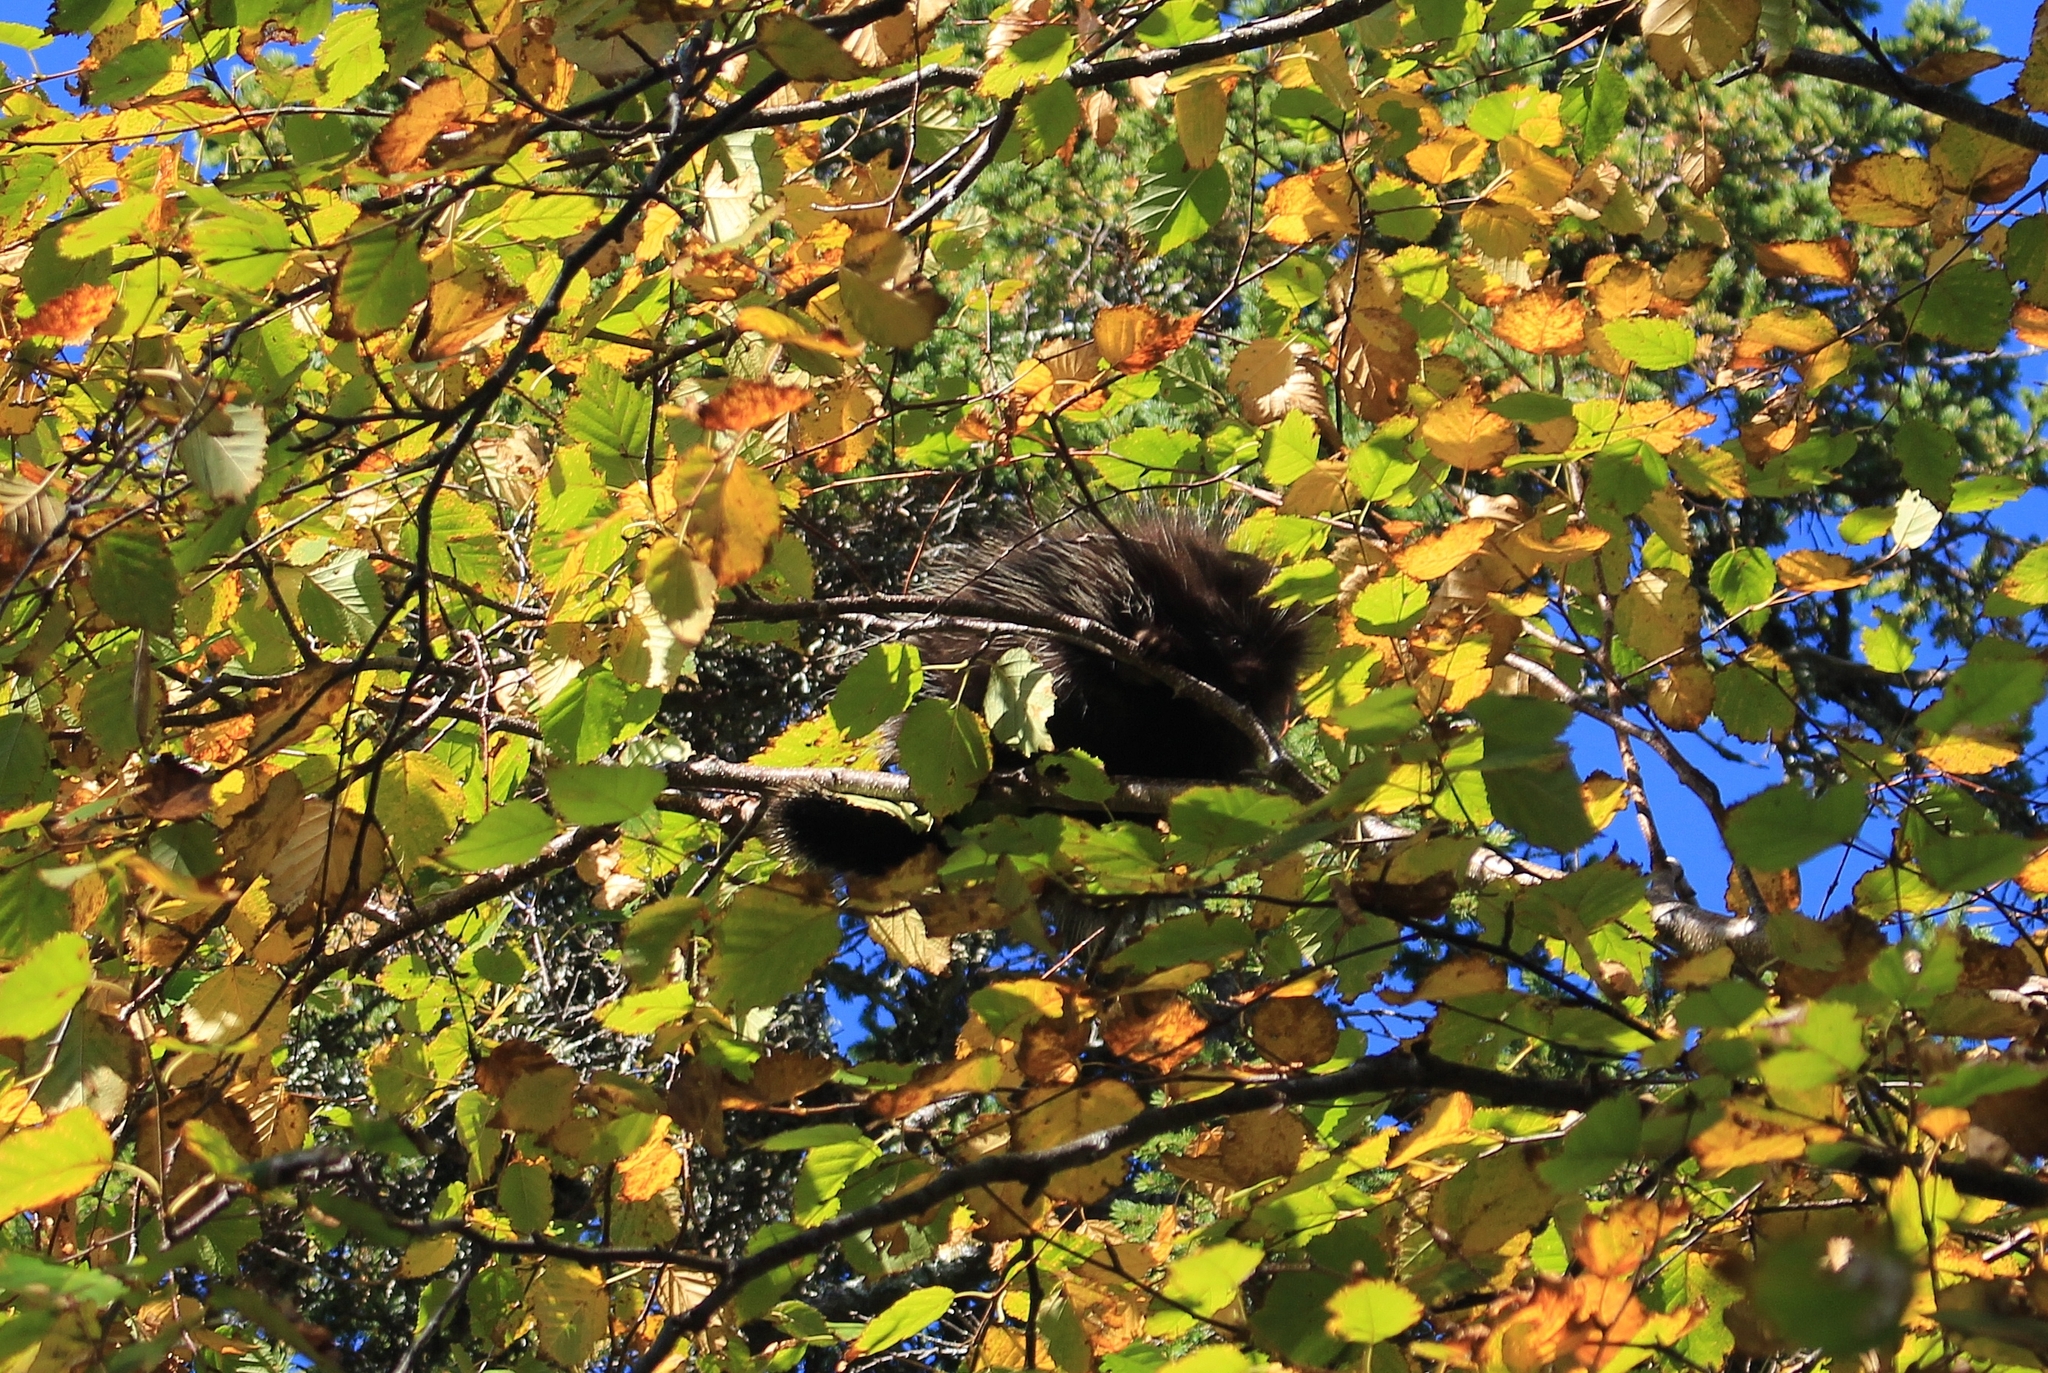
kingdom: Animalia
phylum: Chordata
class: Mammalia
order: Rodentia
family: Erethizontidae
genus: Erethizon
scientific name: Erethizon dorsatus
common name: North american porcupine
